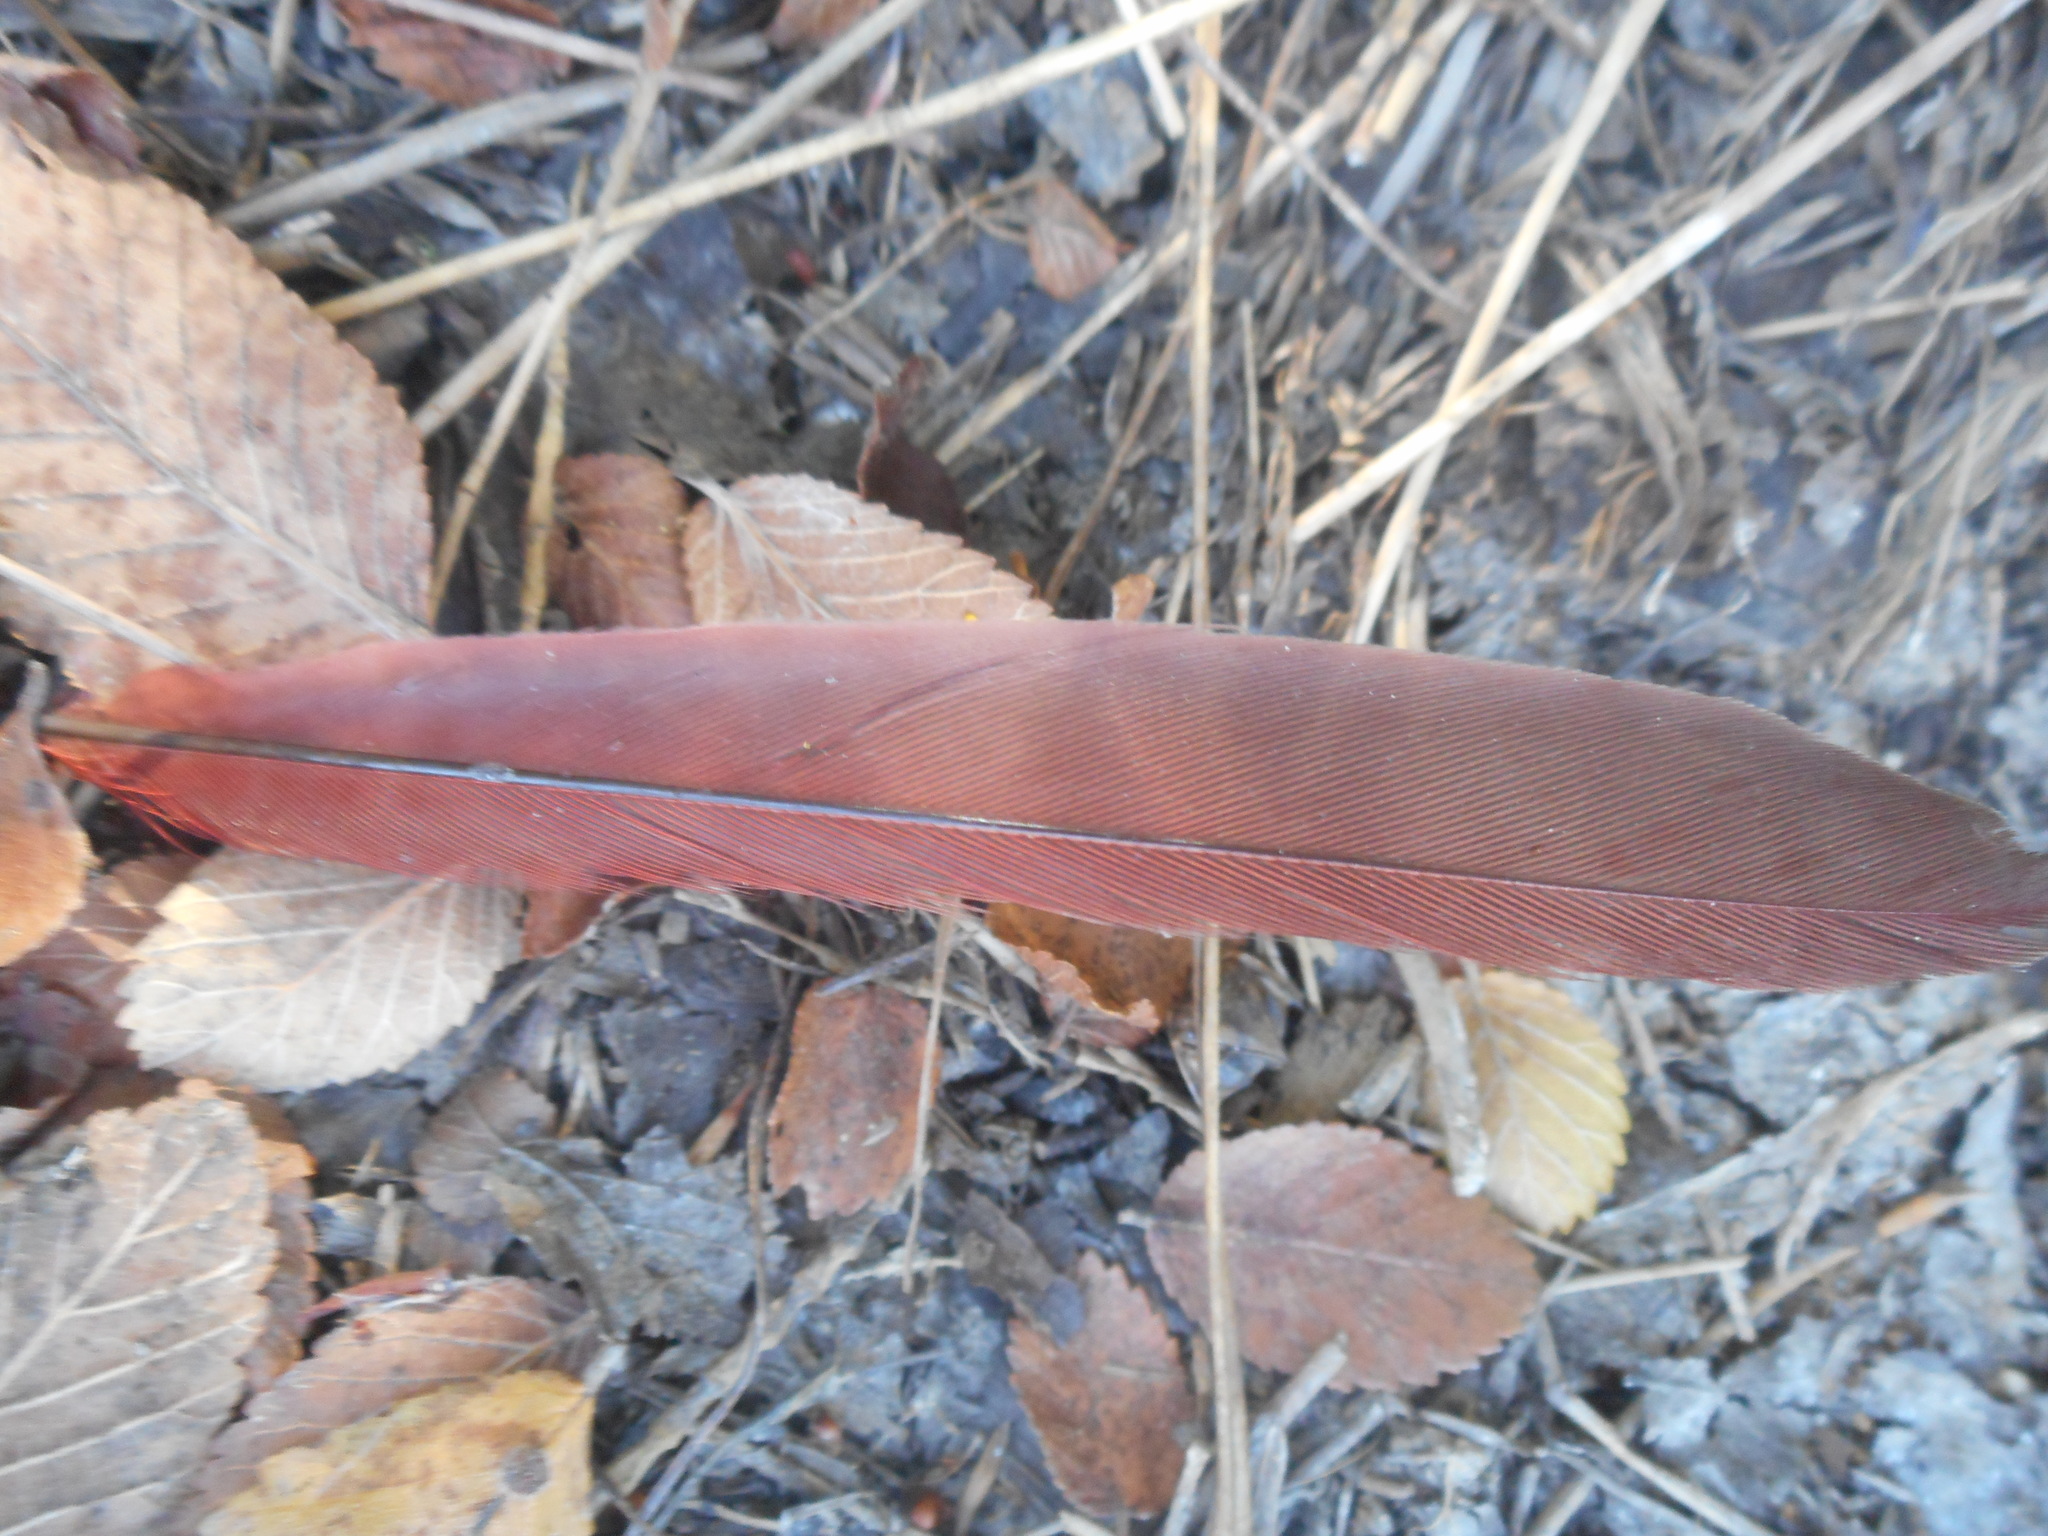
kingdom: Animalia
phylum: Chordata
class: Aves
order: Passeriformes
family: Cardinalidae
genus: Cardinalis
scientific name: Cardinalis cardinalis
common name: Northern cardinal
